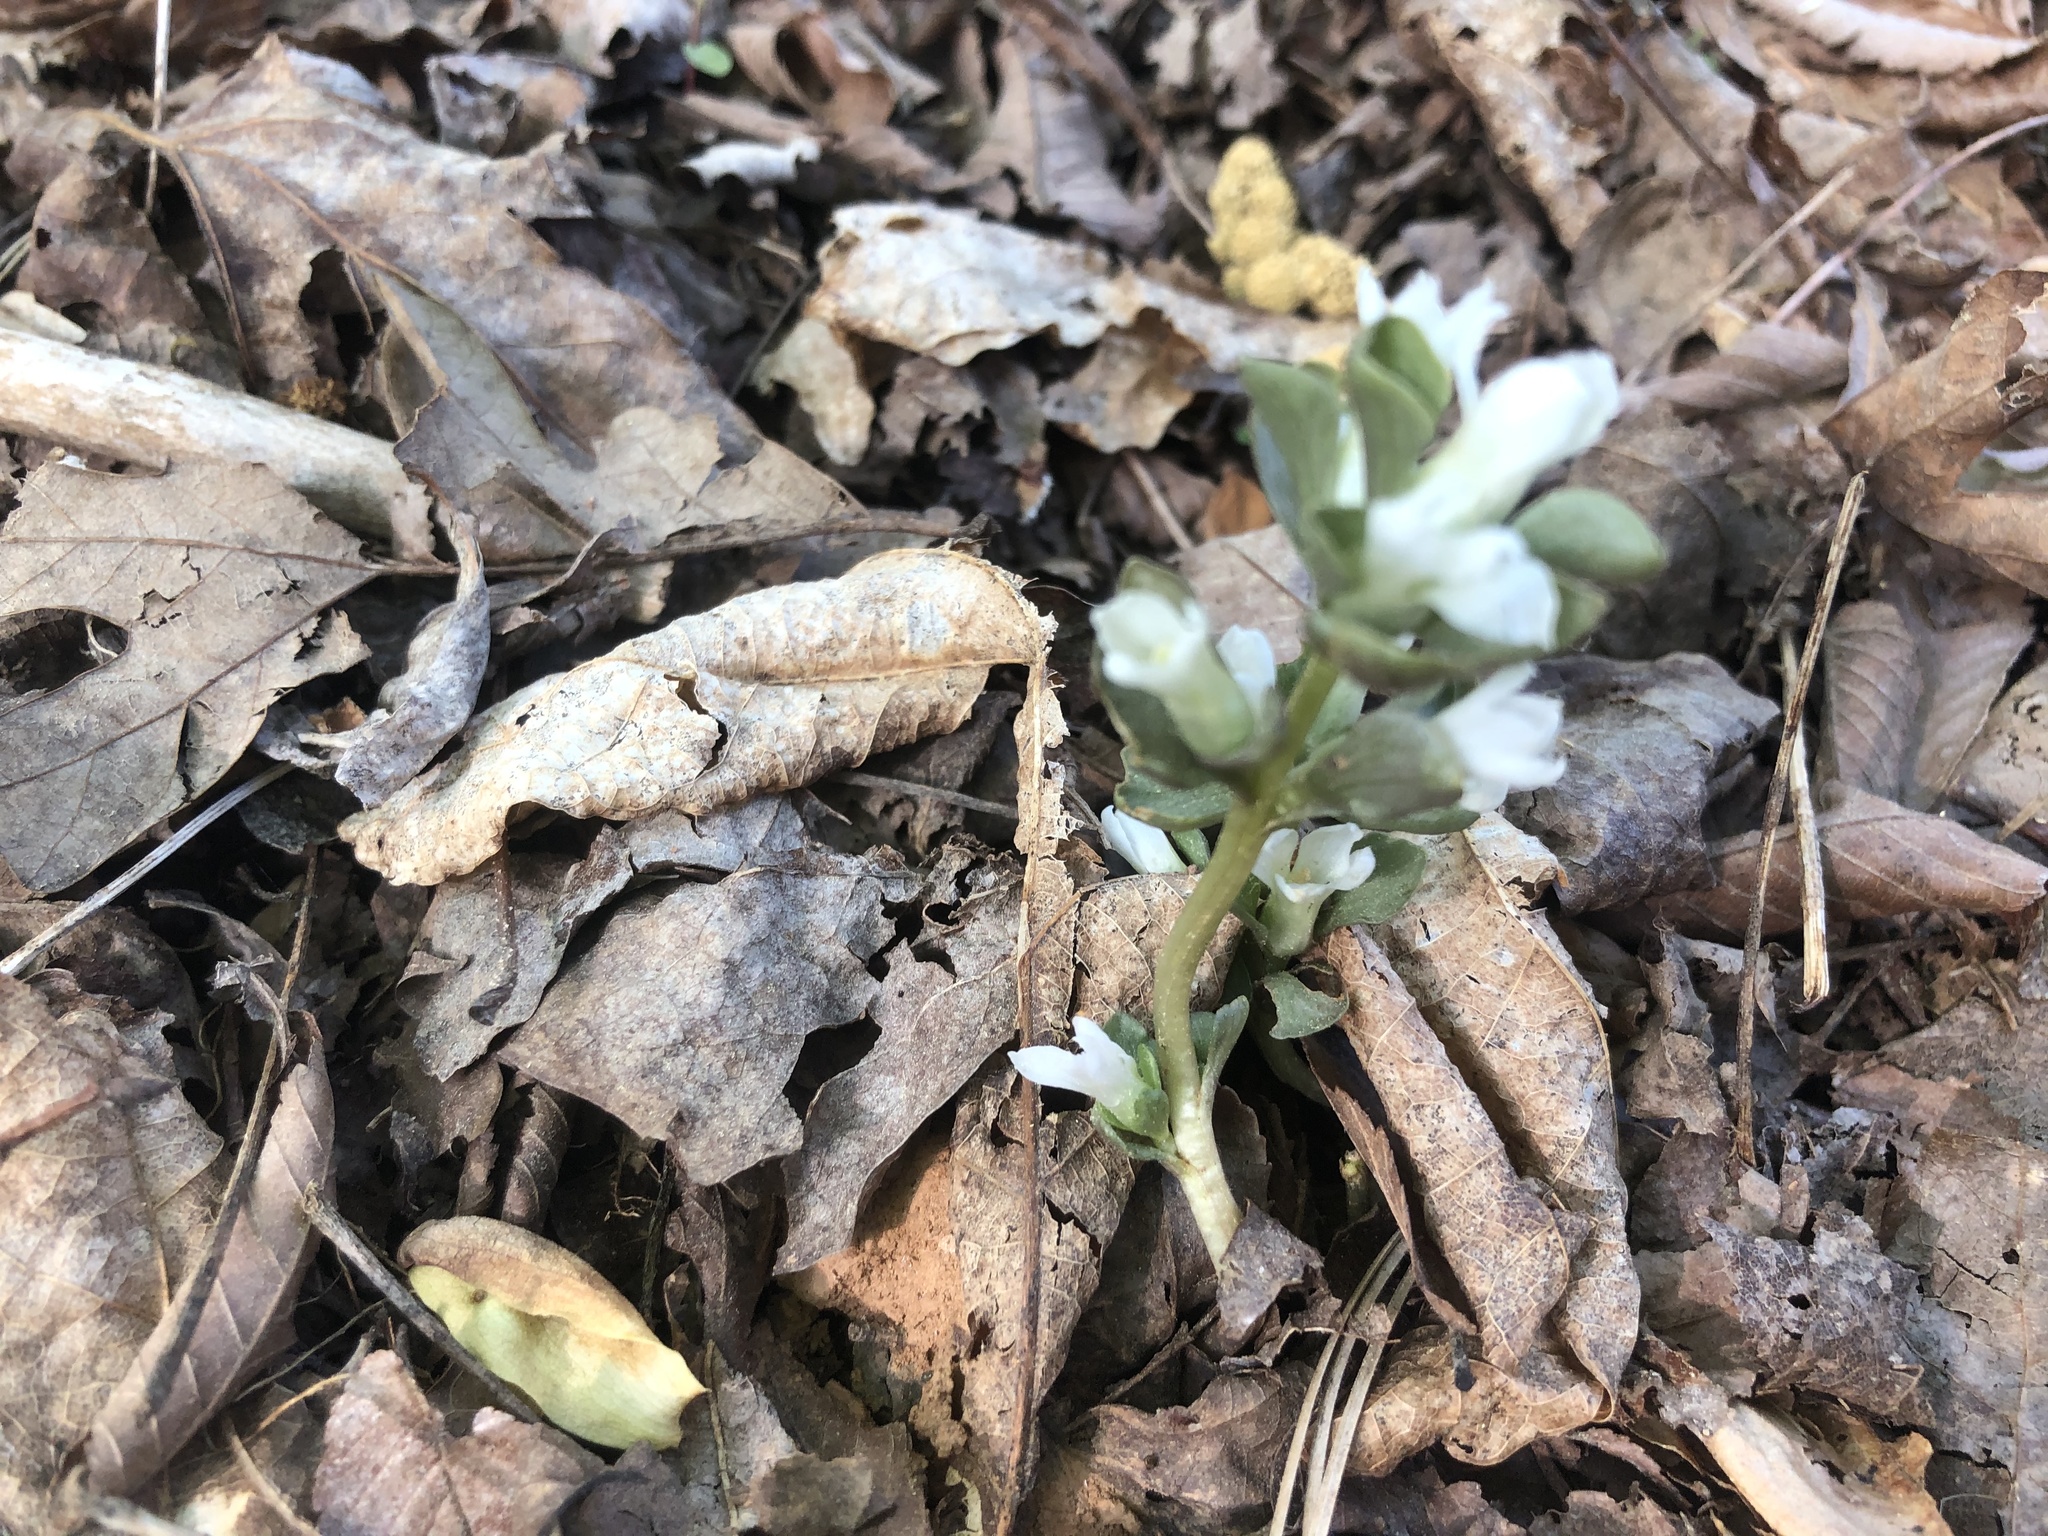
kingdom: Plantae
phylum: Tracheophyta
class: Magnoliopsida
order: Gentianales
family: Gentianaceae
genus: Obolaria
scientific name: Obolaria virginica
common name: Pennywort
